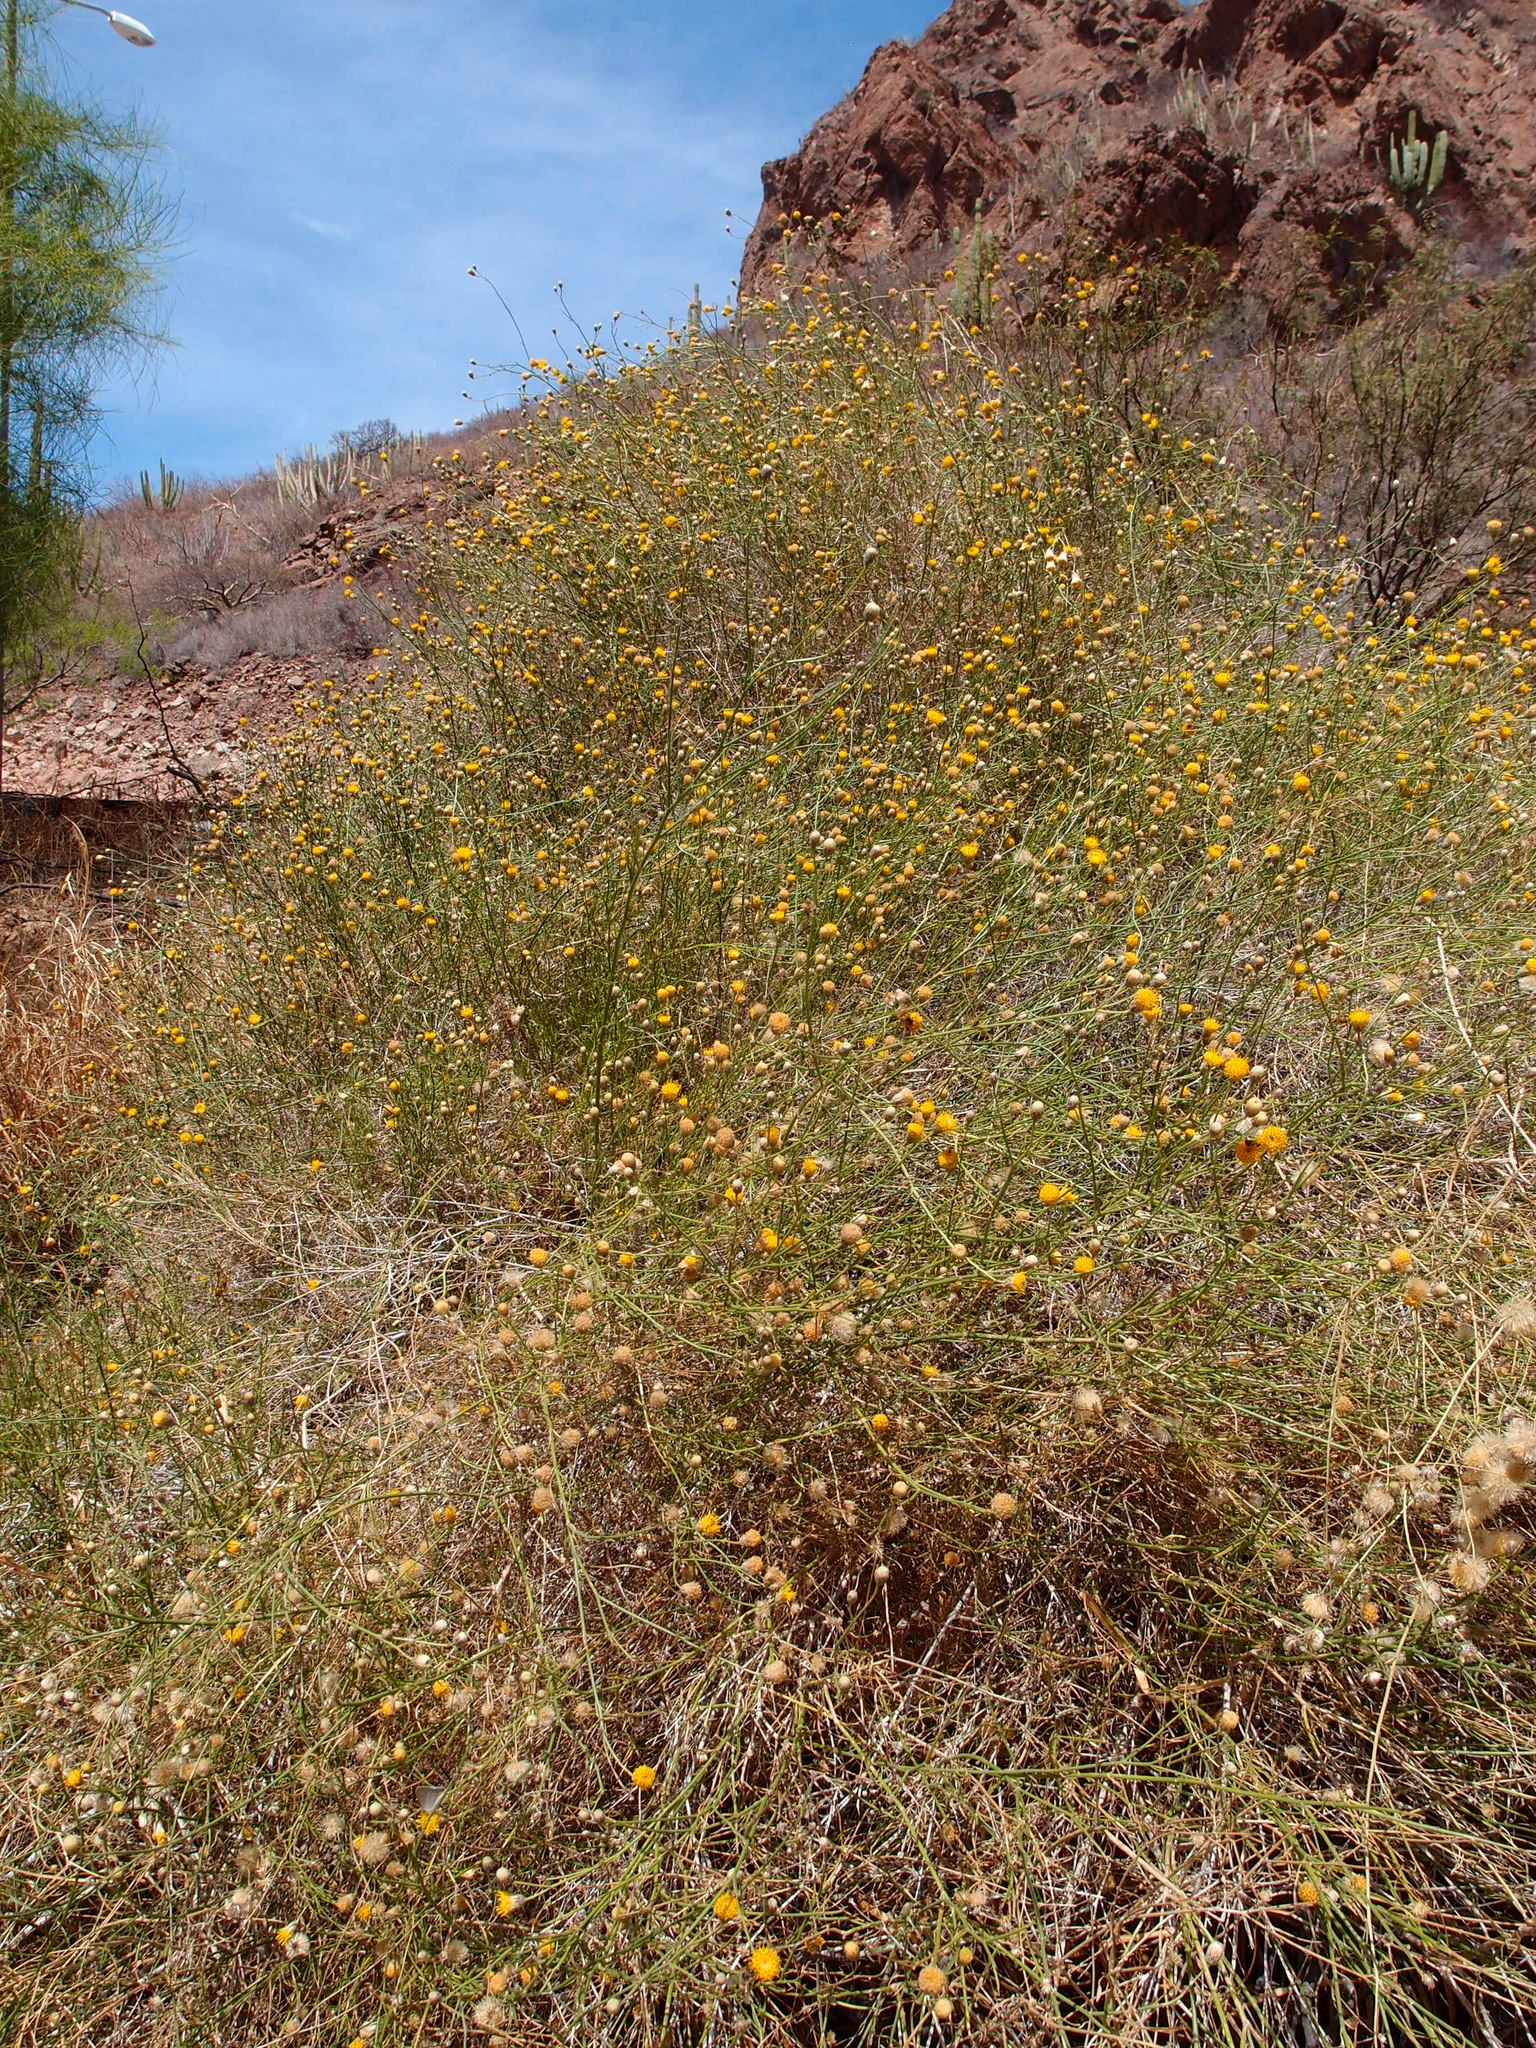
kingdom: Plantae
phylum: Tracheophyta
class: Magnoliopsida
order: Asterales
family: Asteraceae
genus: Bebbia
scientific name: Bebbia juncea
